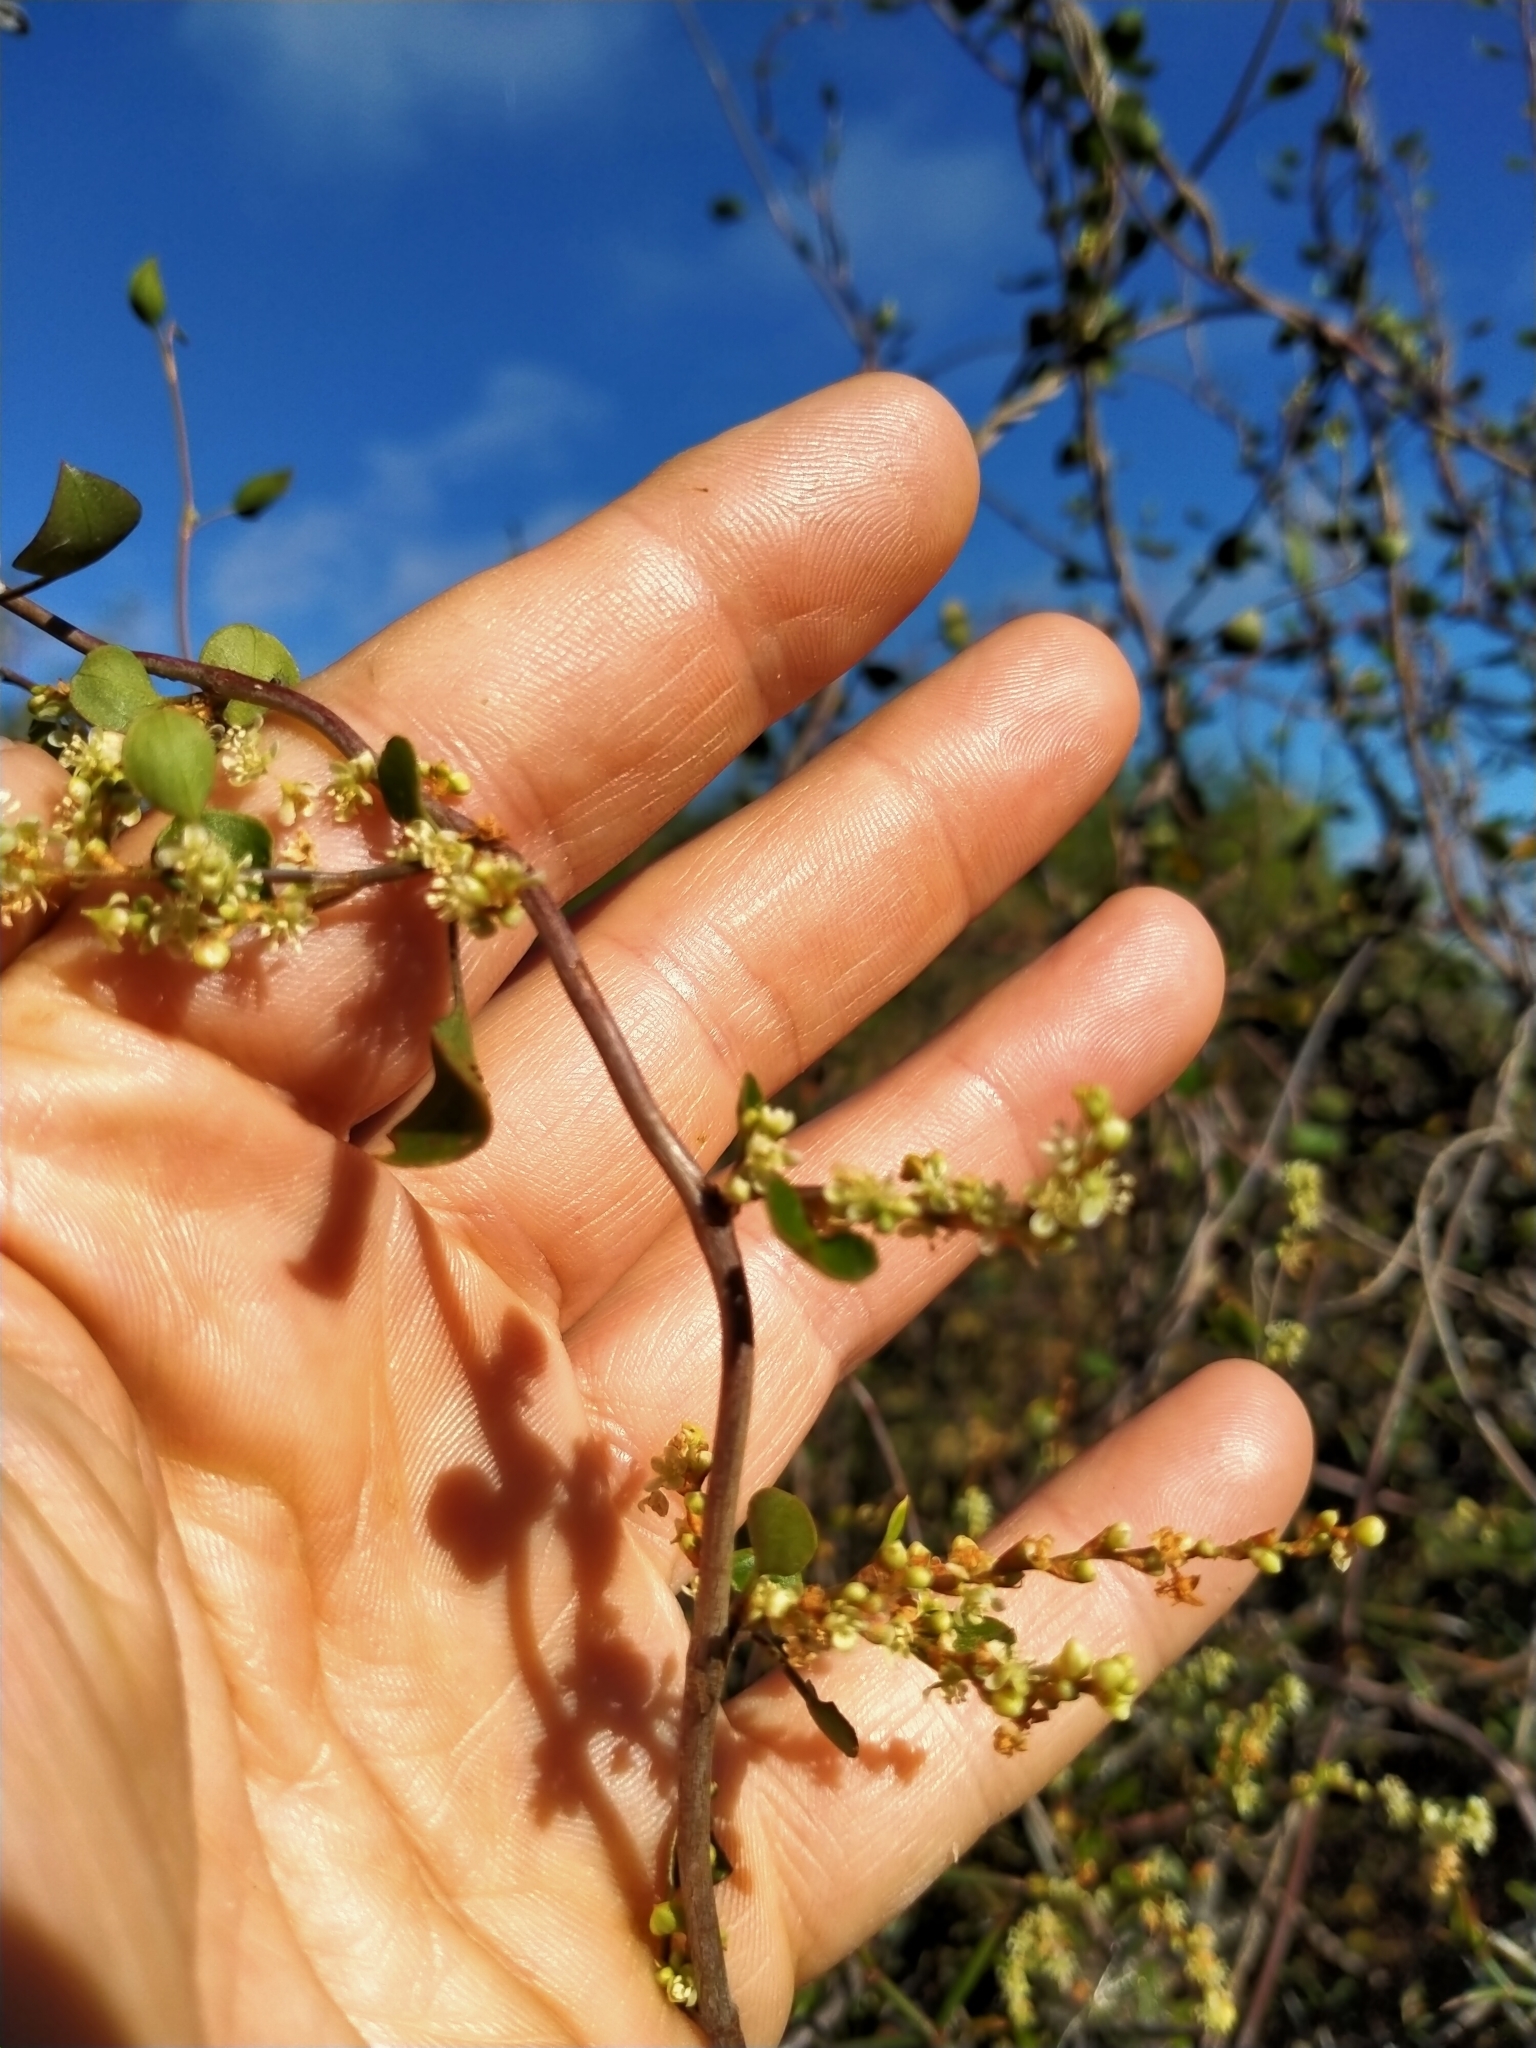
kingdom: Plantae
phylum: Tracheophyta
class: Magnoliopsida
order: Caryophyllales
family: Polygonaceae
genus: Muehlenbeckia
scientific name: Muehlenbeckia complexa
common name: Wireplant
